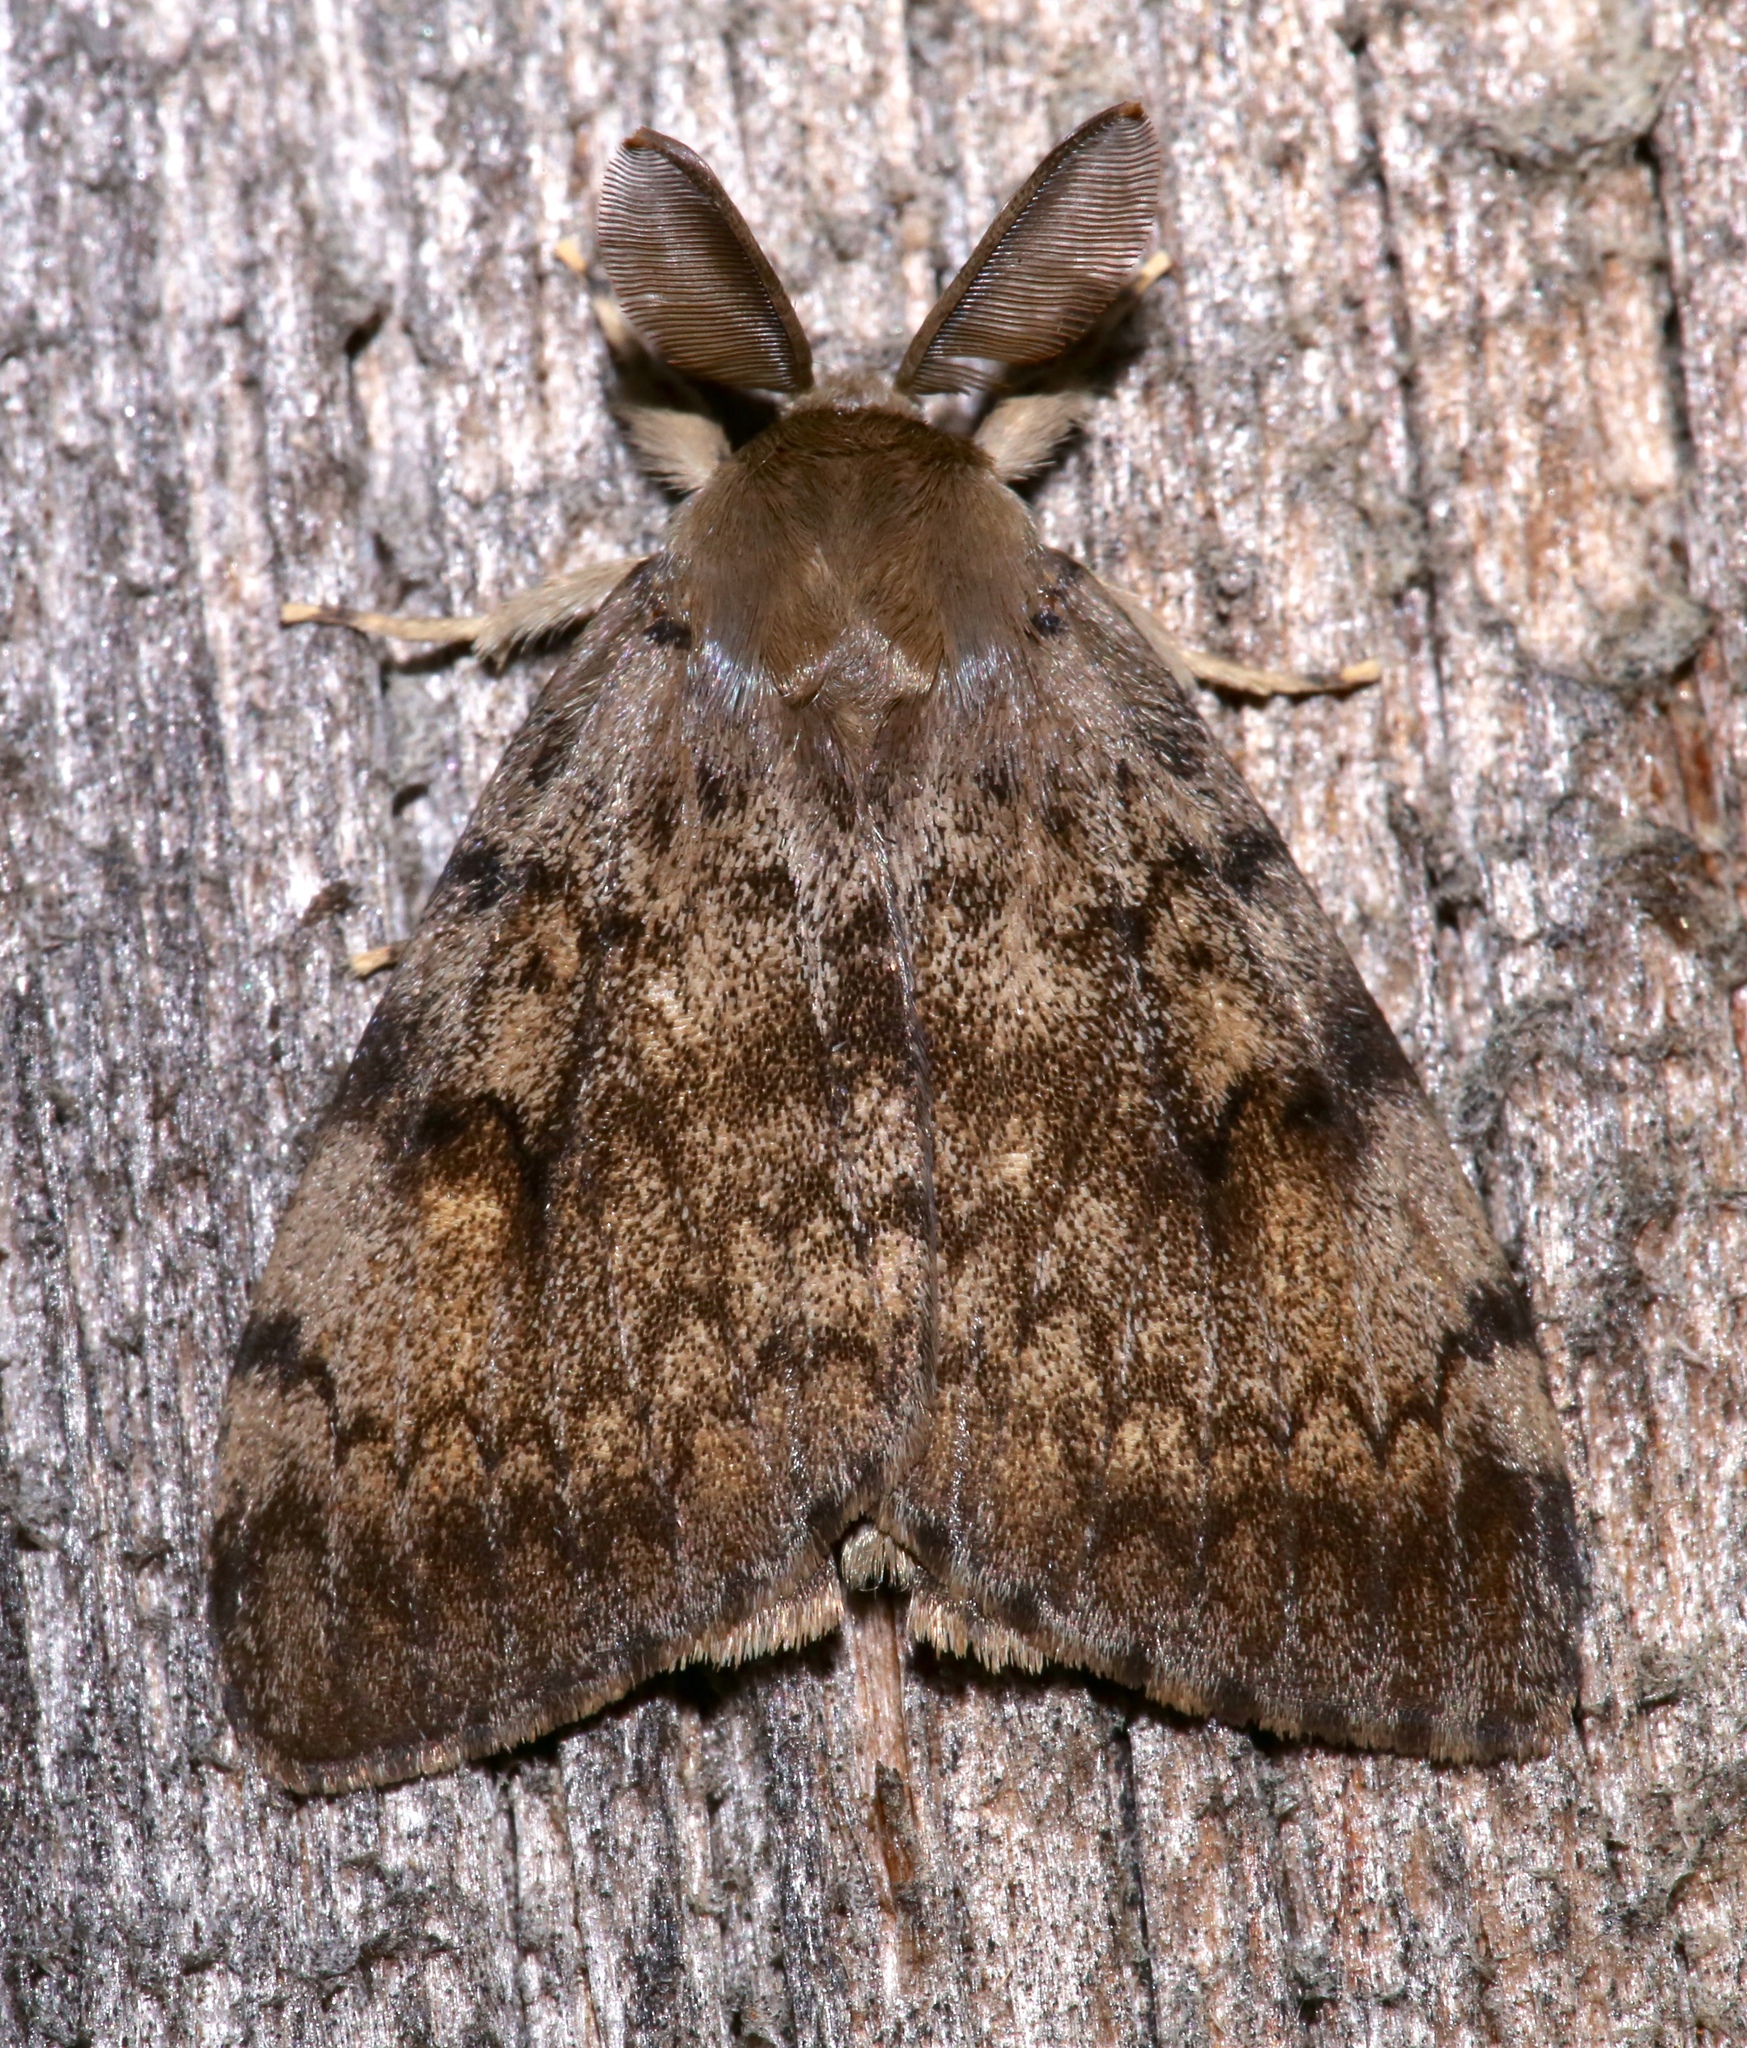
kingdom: Animalia
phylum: Arthropoda
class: Insecta
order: Lepidoptera
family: Erebidae
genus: Lymantria
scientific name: Lymantria dispar
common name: Gypsy moth
